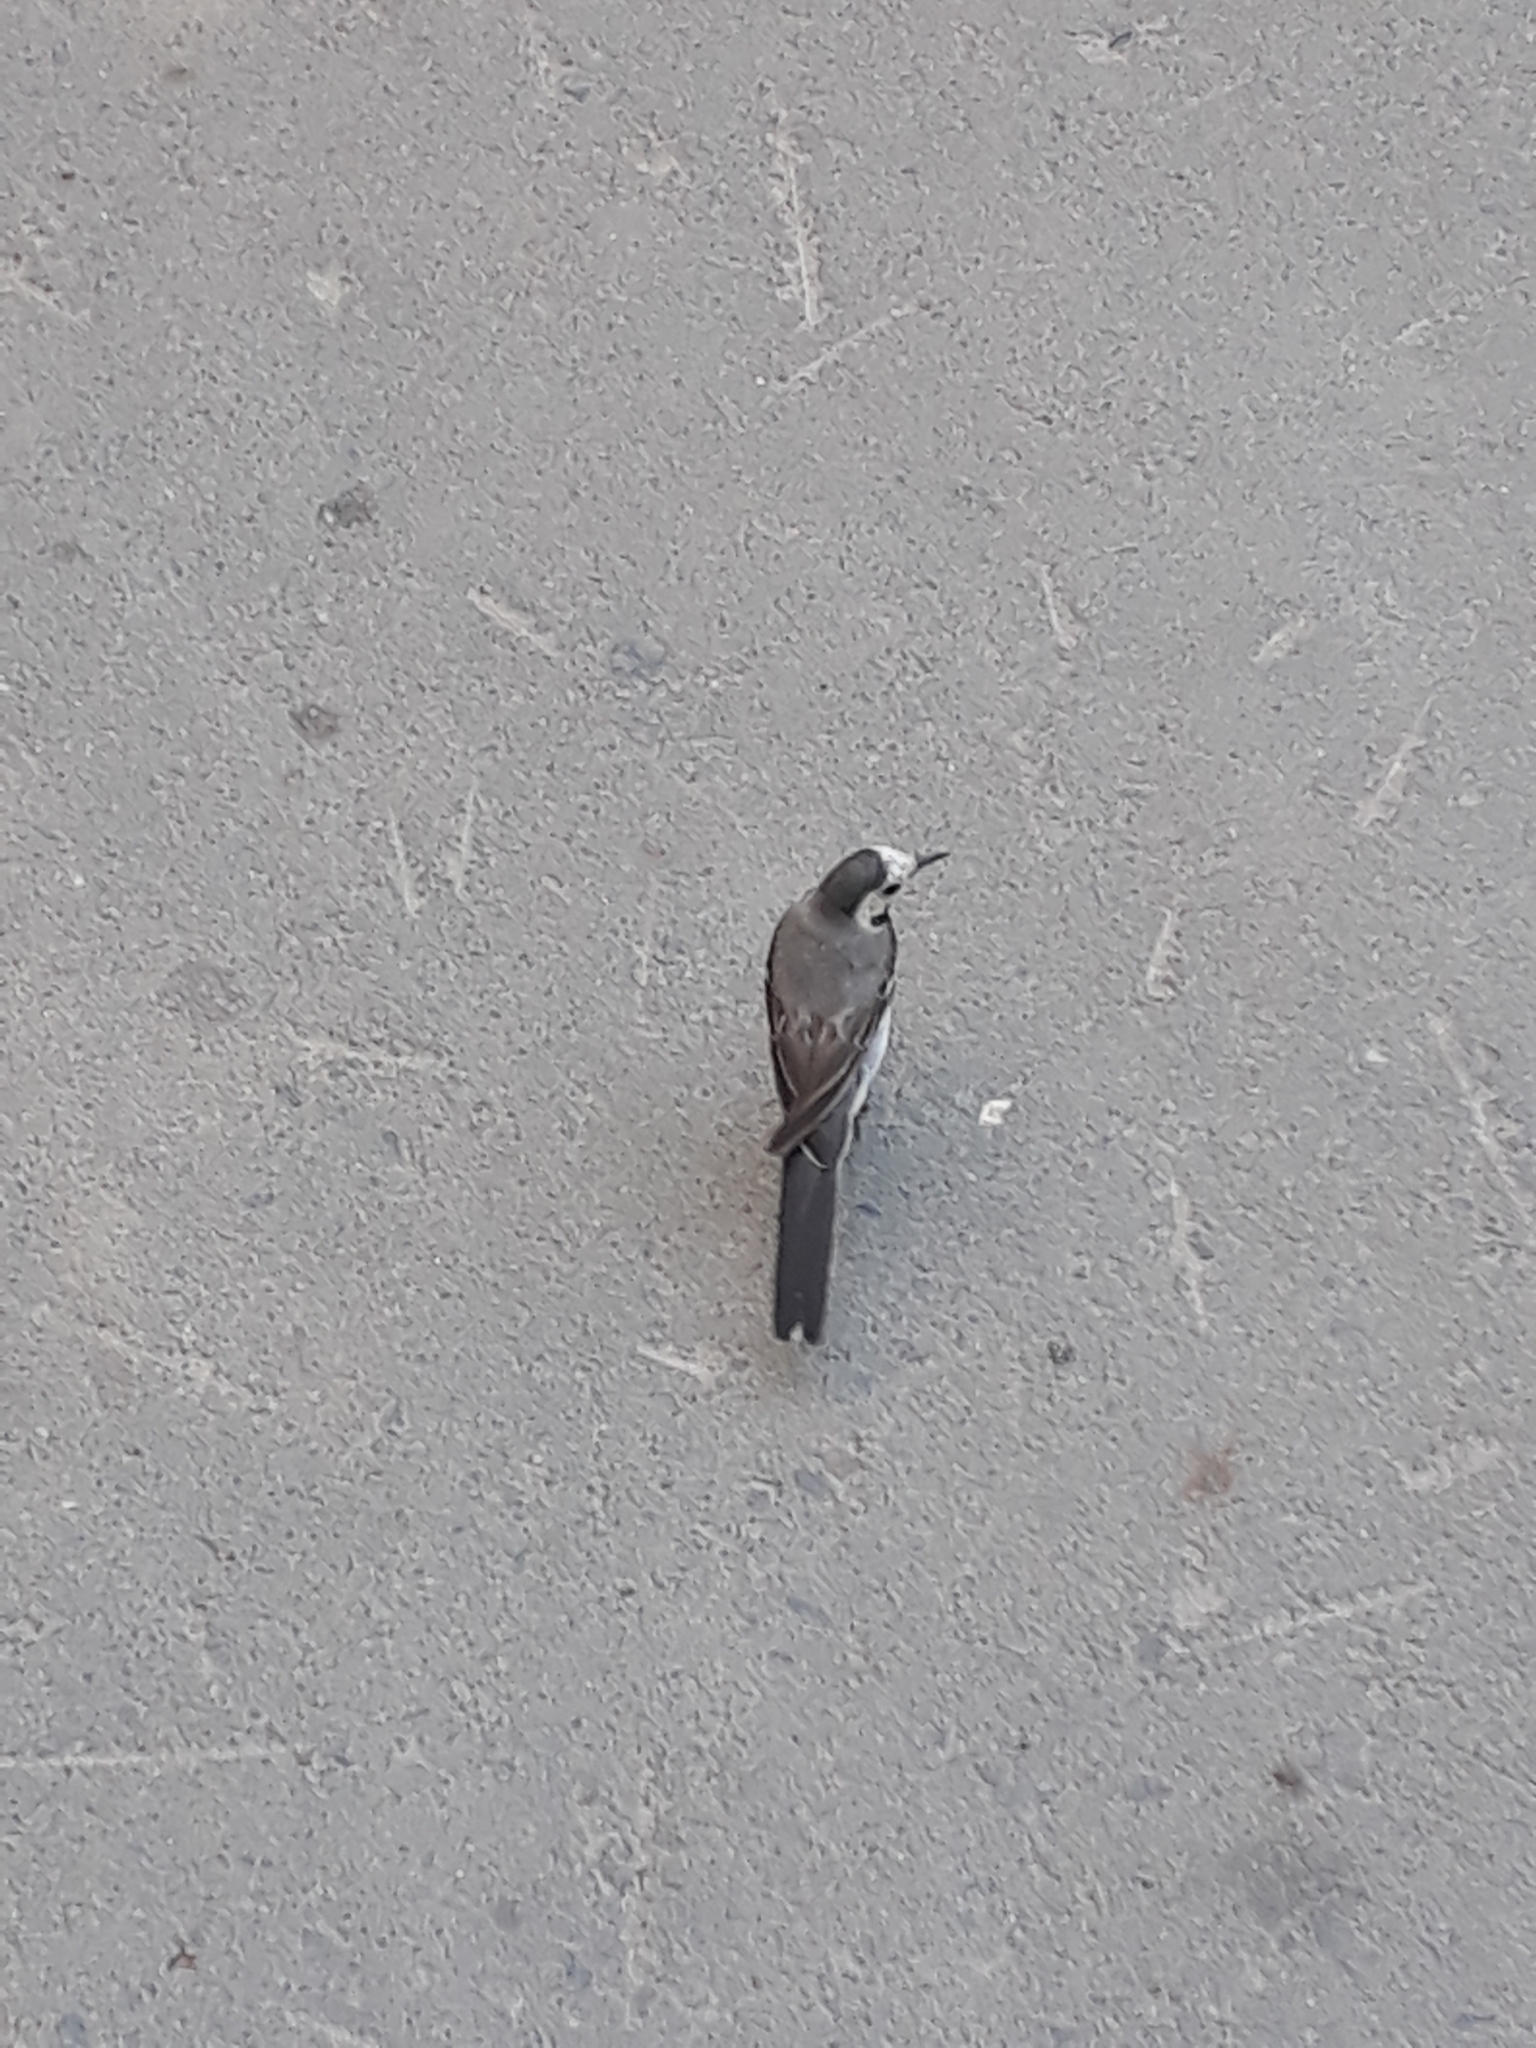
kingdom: Animalia
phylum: Chordata
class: Aves
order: Passeriformes
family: Motacillidae
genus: Motacilla
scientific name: Motacilla alba
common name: White wagtail
